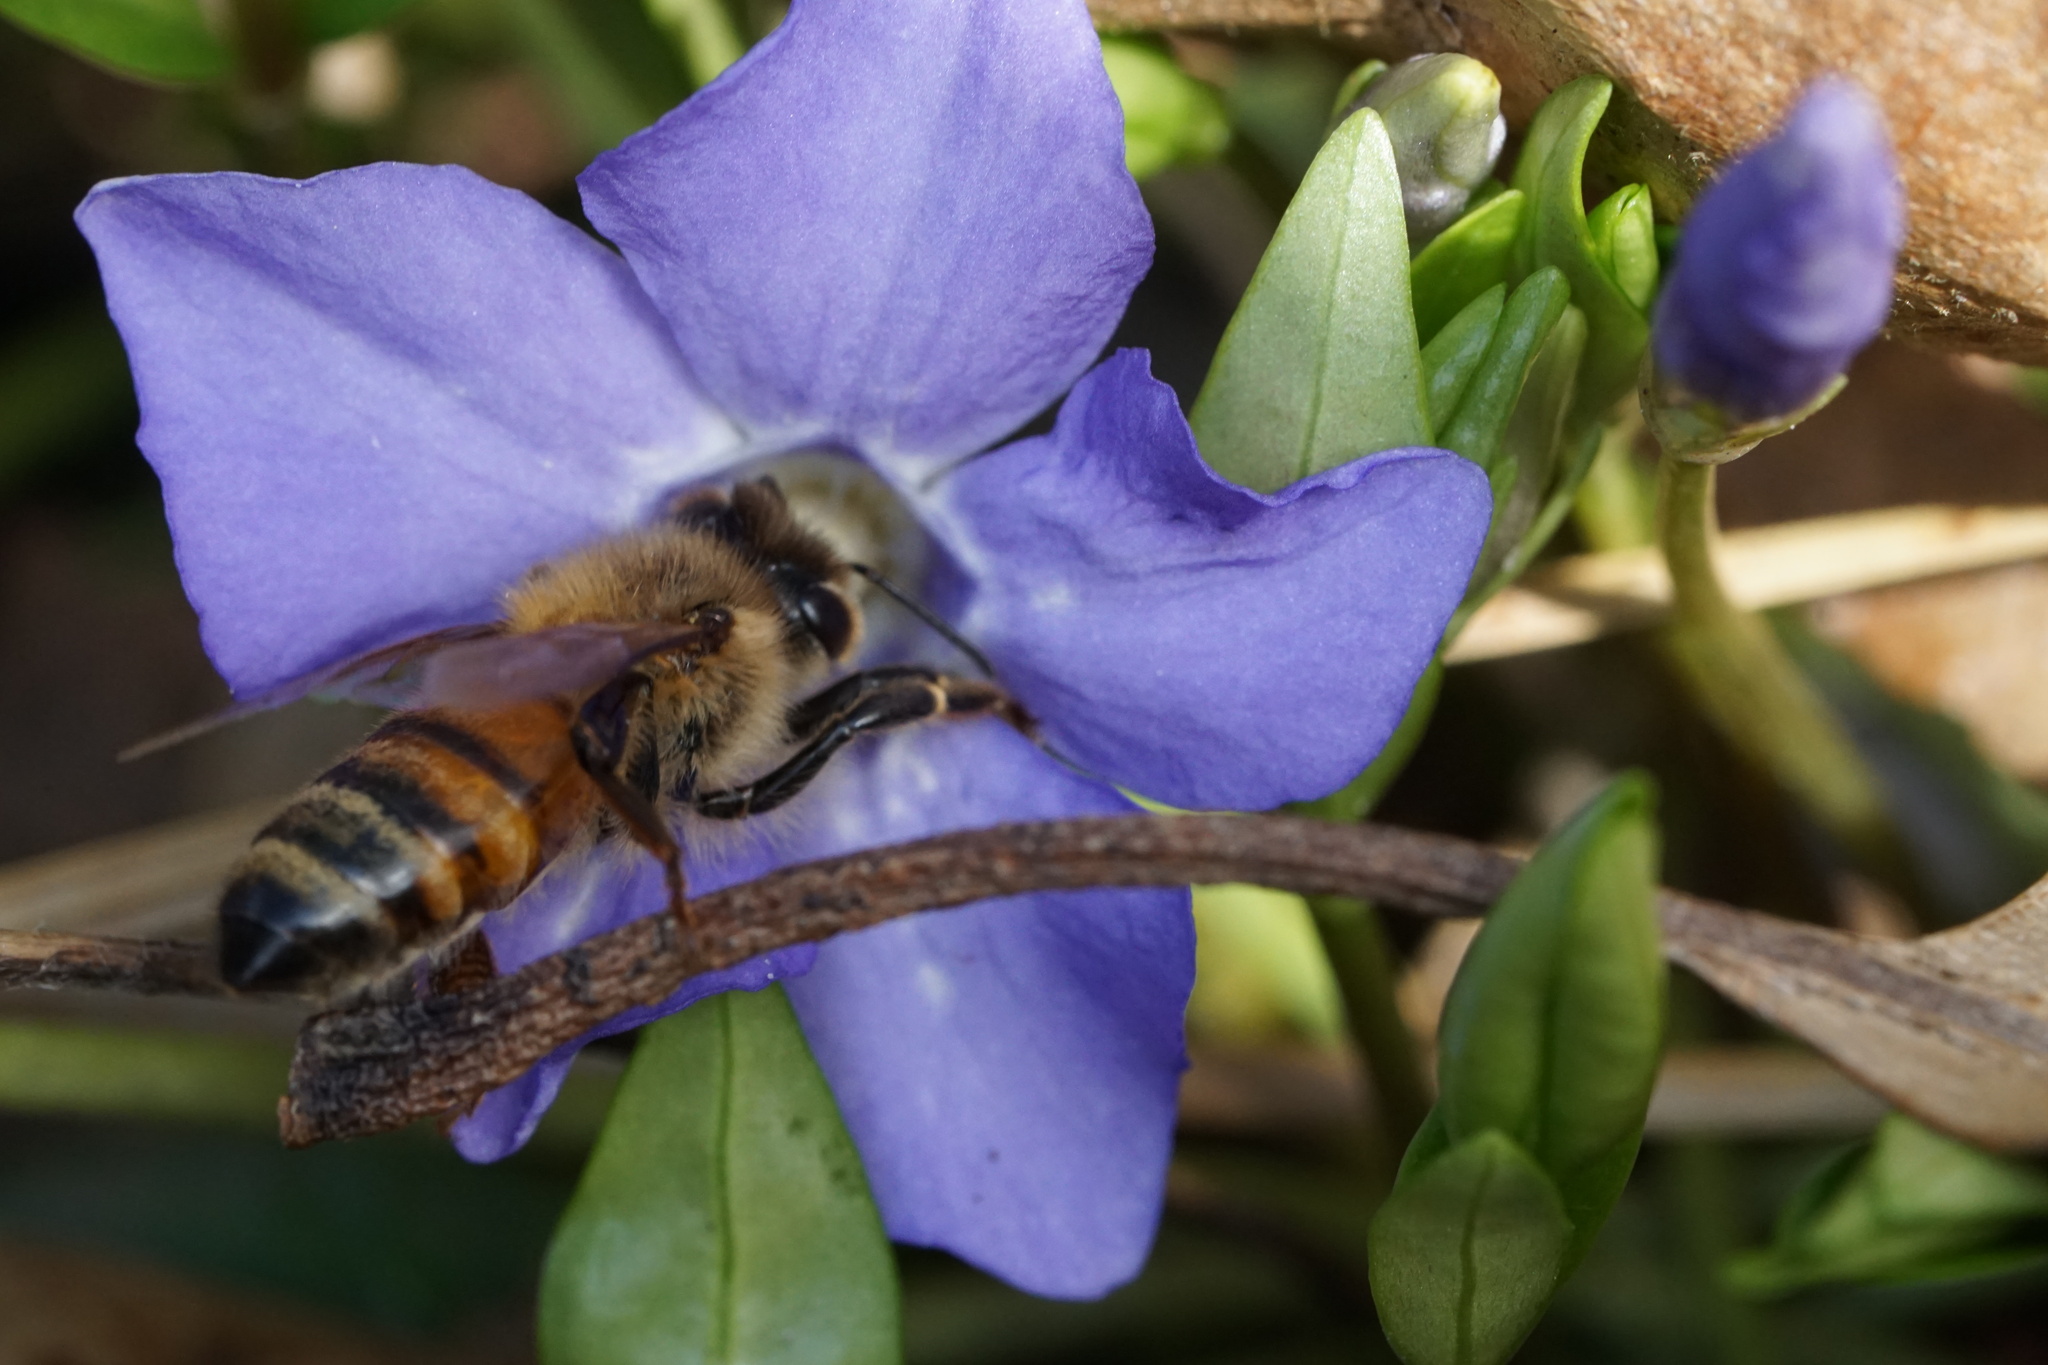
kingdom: Animalia
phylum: Arthropoda
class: Insecta
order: Hymenoptera
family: Apidae
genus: Apis
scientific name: Apis mellifera
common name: Honey bee
